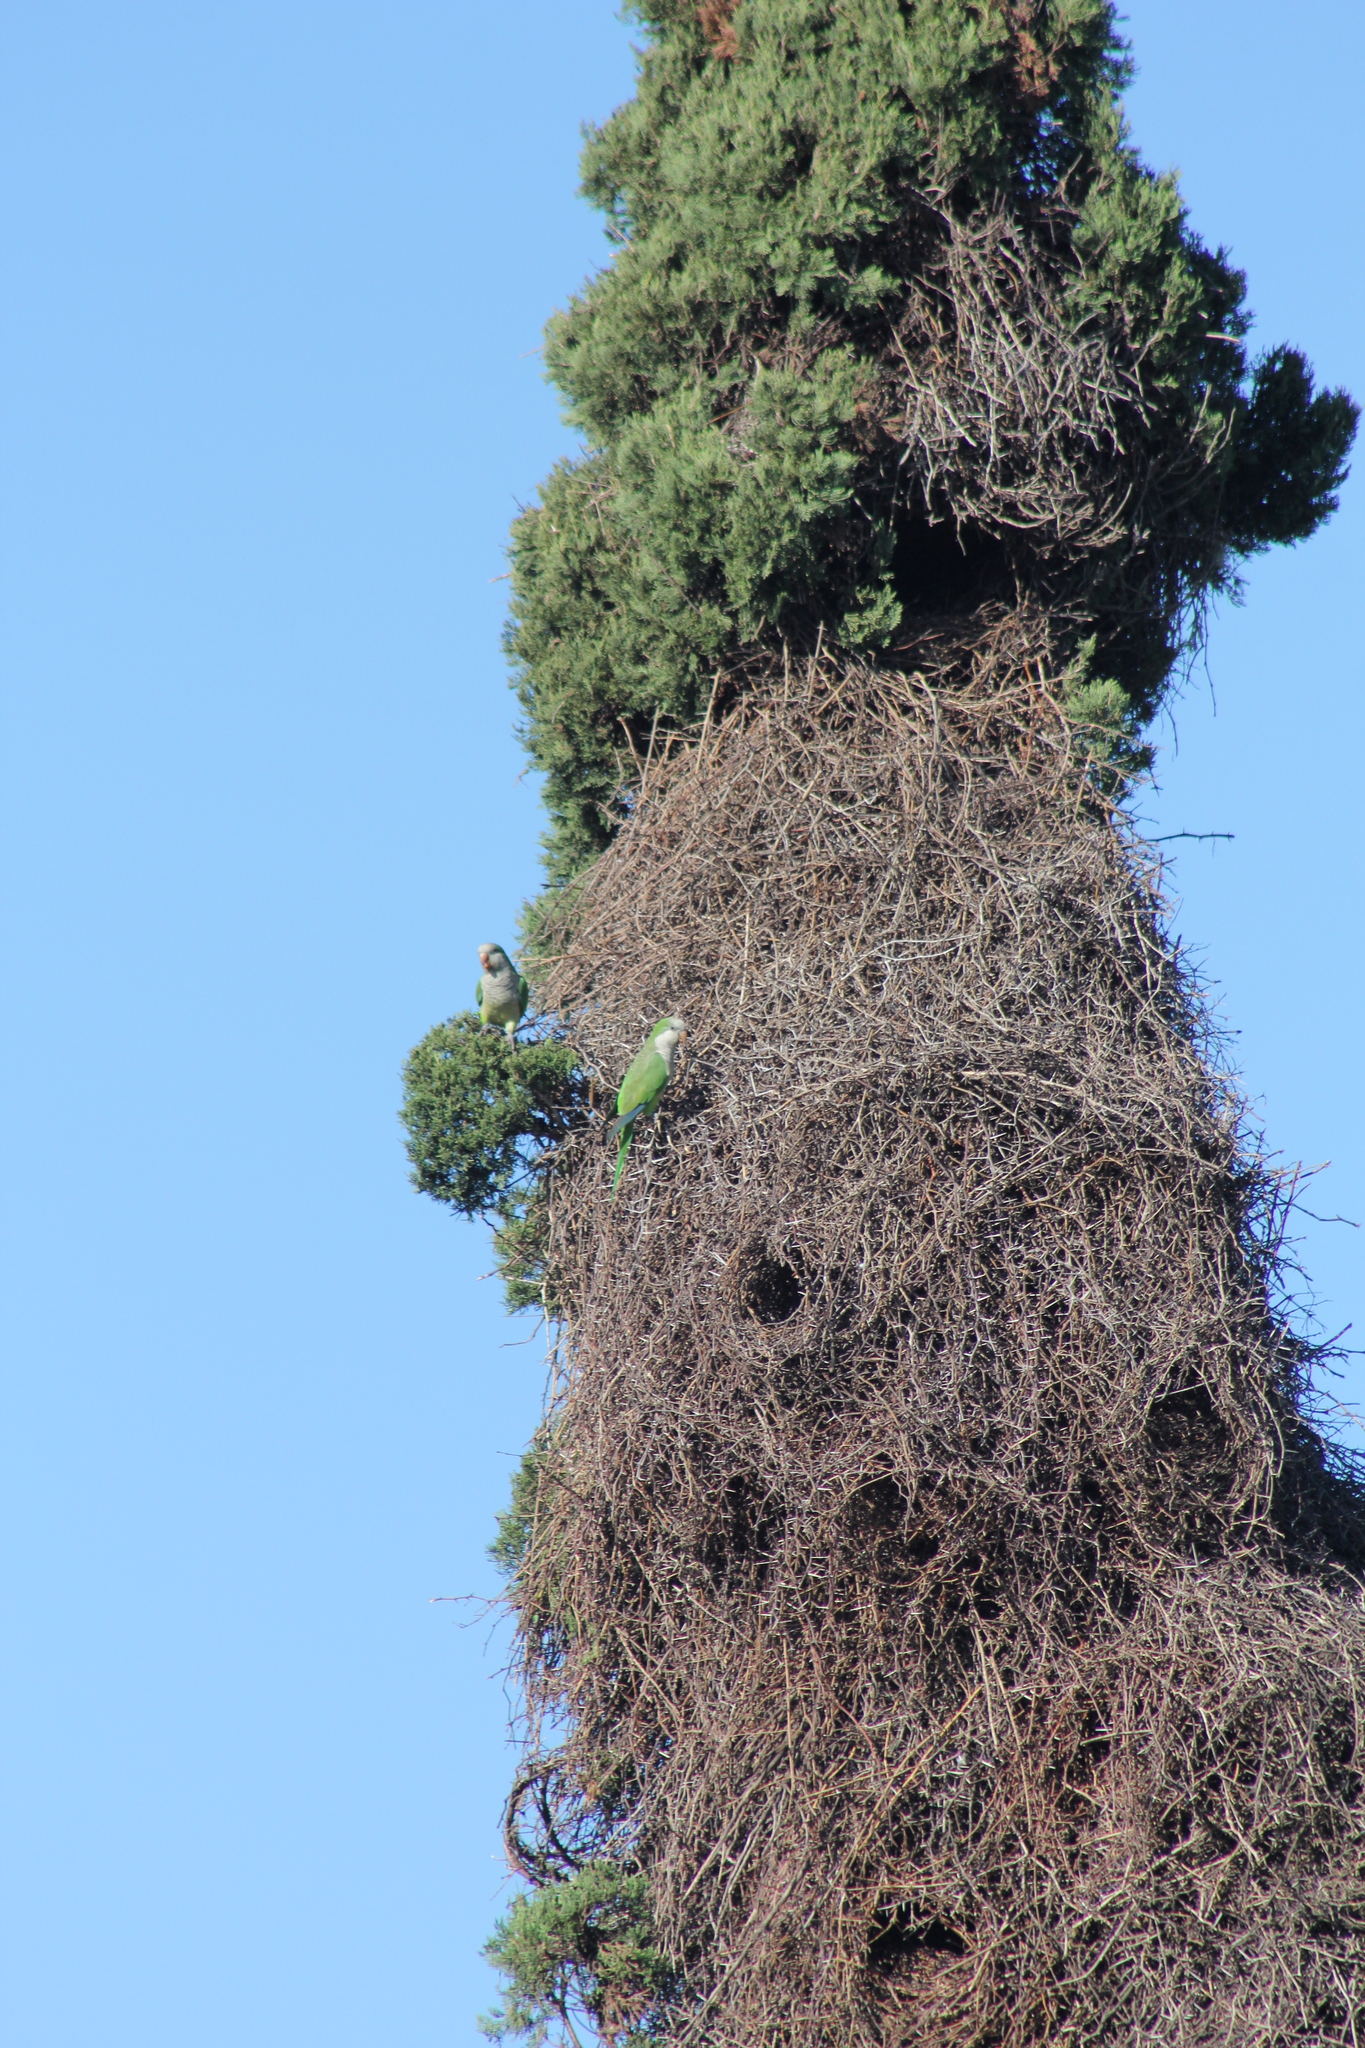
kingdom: Animalia
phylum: Chordata
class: Aves
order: Psittaciformes
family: Psittacidae
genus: Myiopsitta
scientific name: Myiopsitta monachus
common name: Monk parakeet
